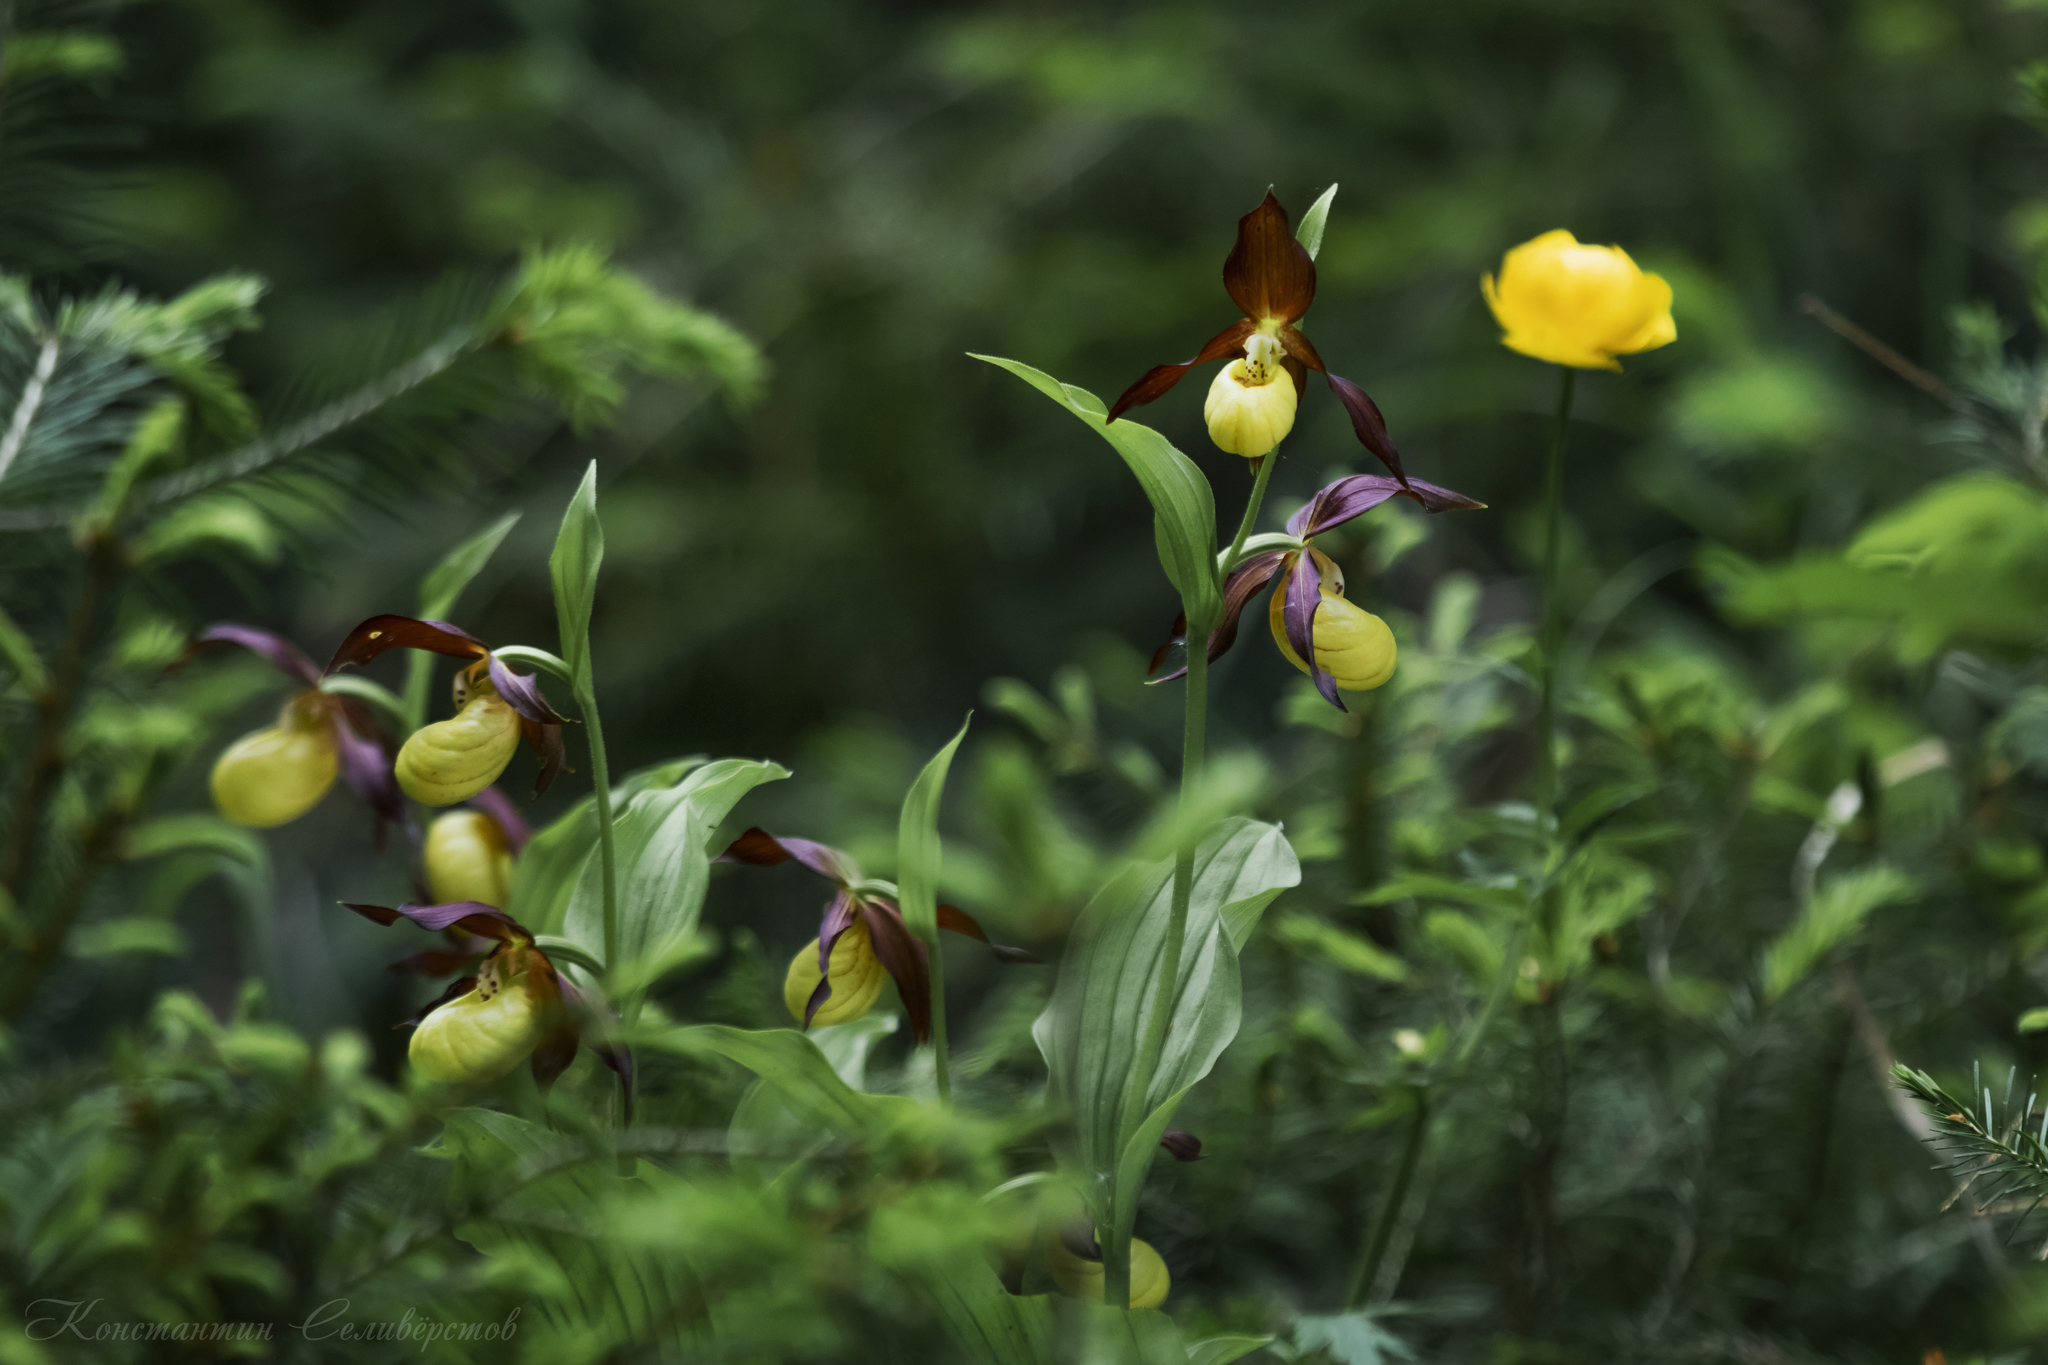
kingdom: Plantae
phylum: Tracheophyta
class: Liliopsida
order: Asparagales
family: Orchidaceae
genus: Cypripedium
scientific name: Cypripedium calceolus
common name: Lady's-slipper
